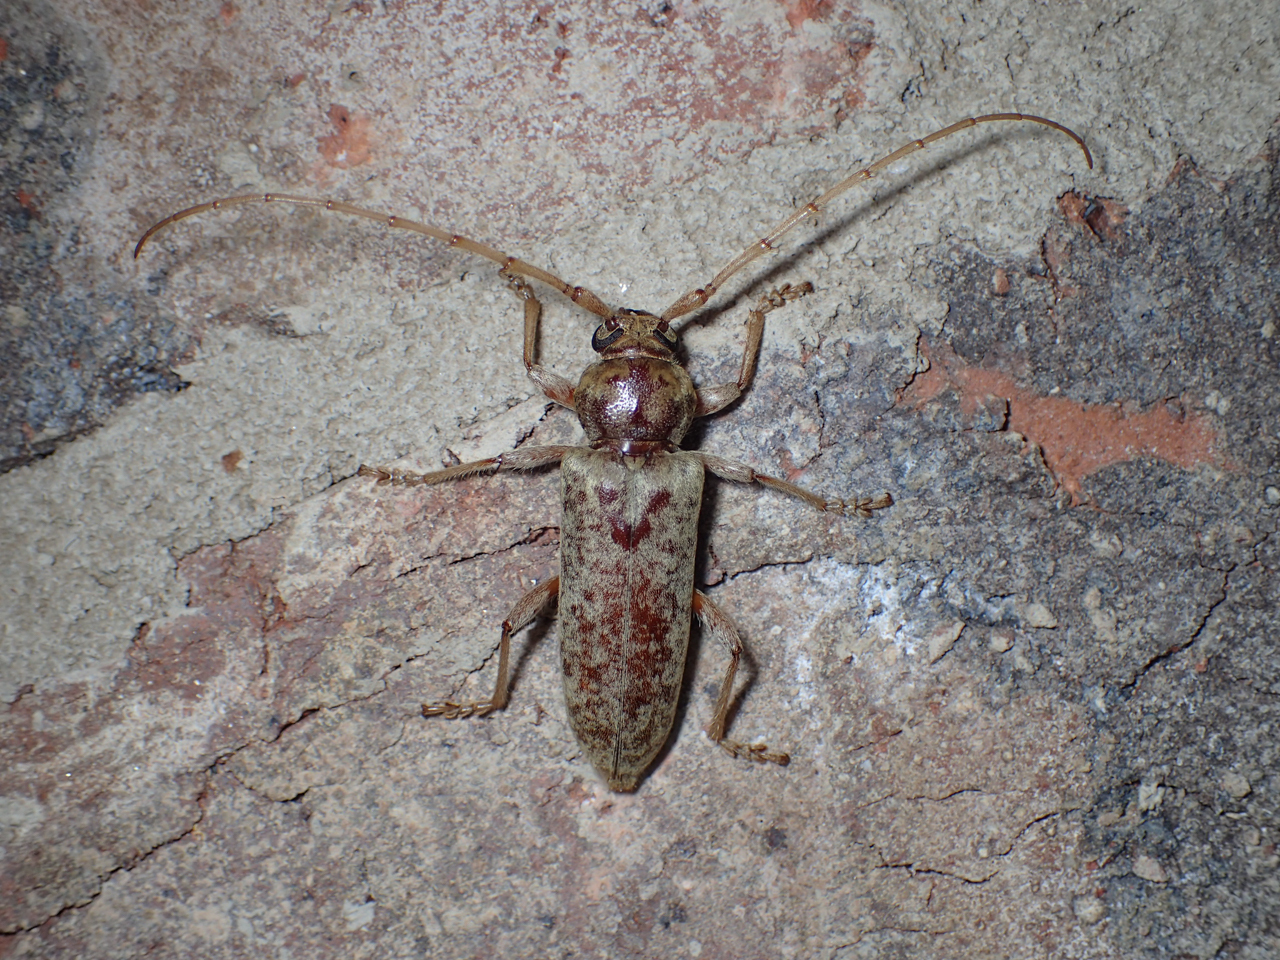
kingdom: Animalia
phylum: Arthropoda
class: Insecta
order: Coleoptera
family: Cerambycidae
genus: Enaphalodes
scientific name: Enaphalodes rufulus
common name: Red oak borer
